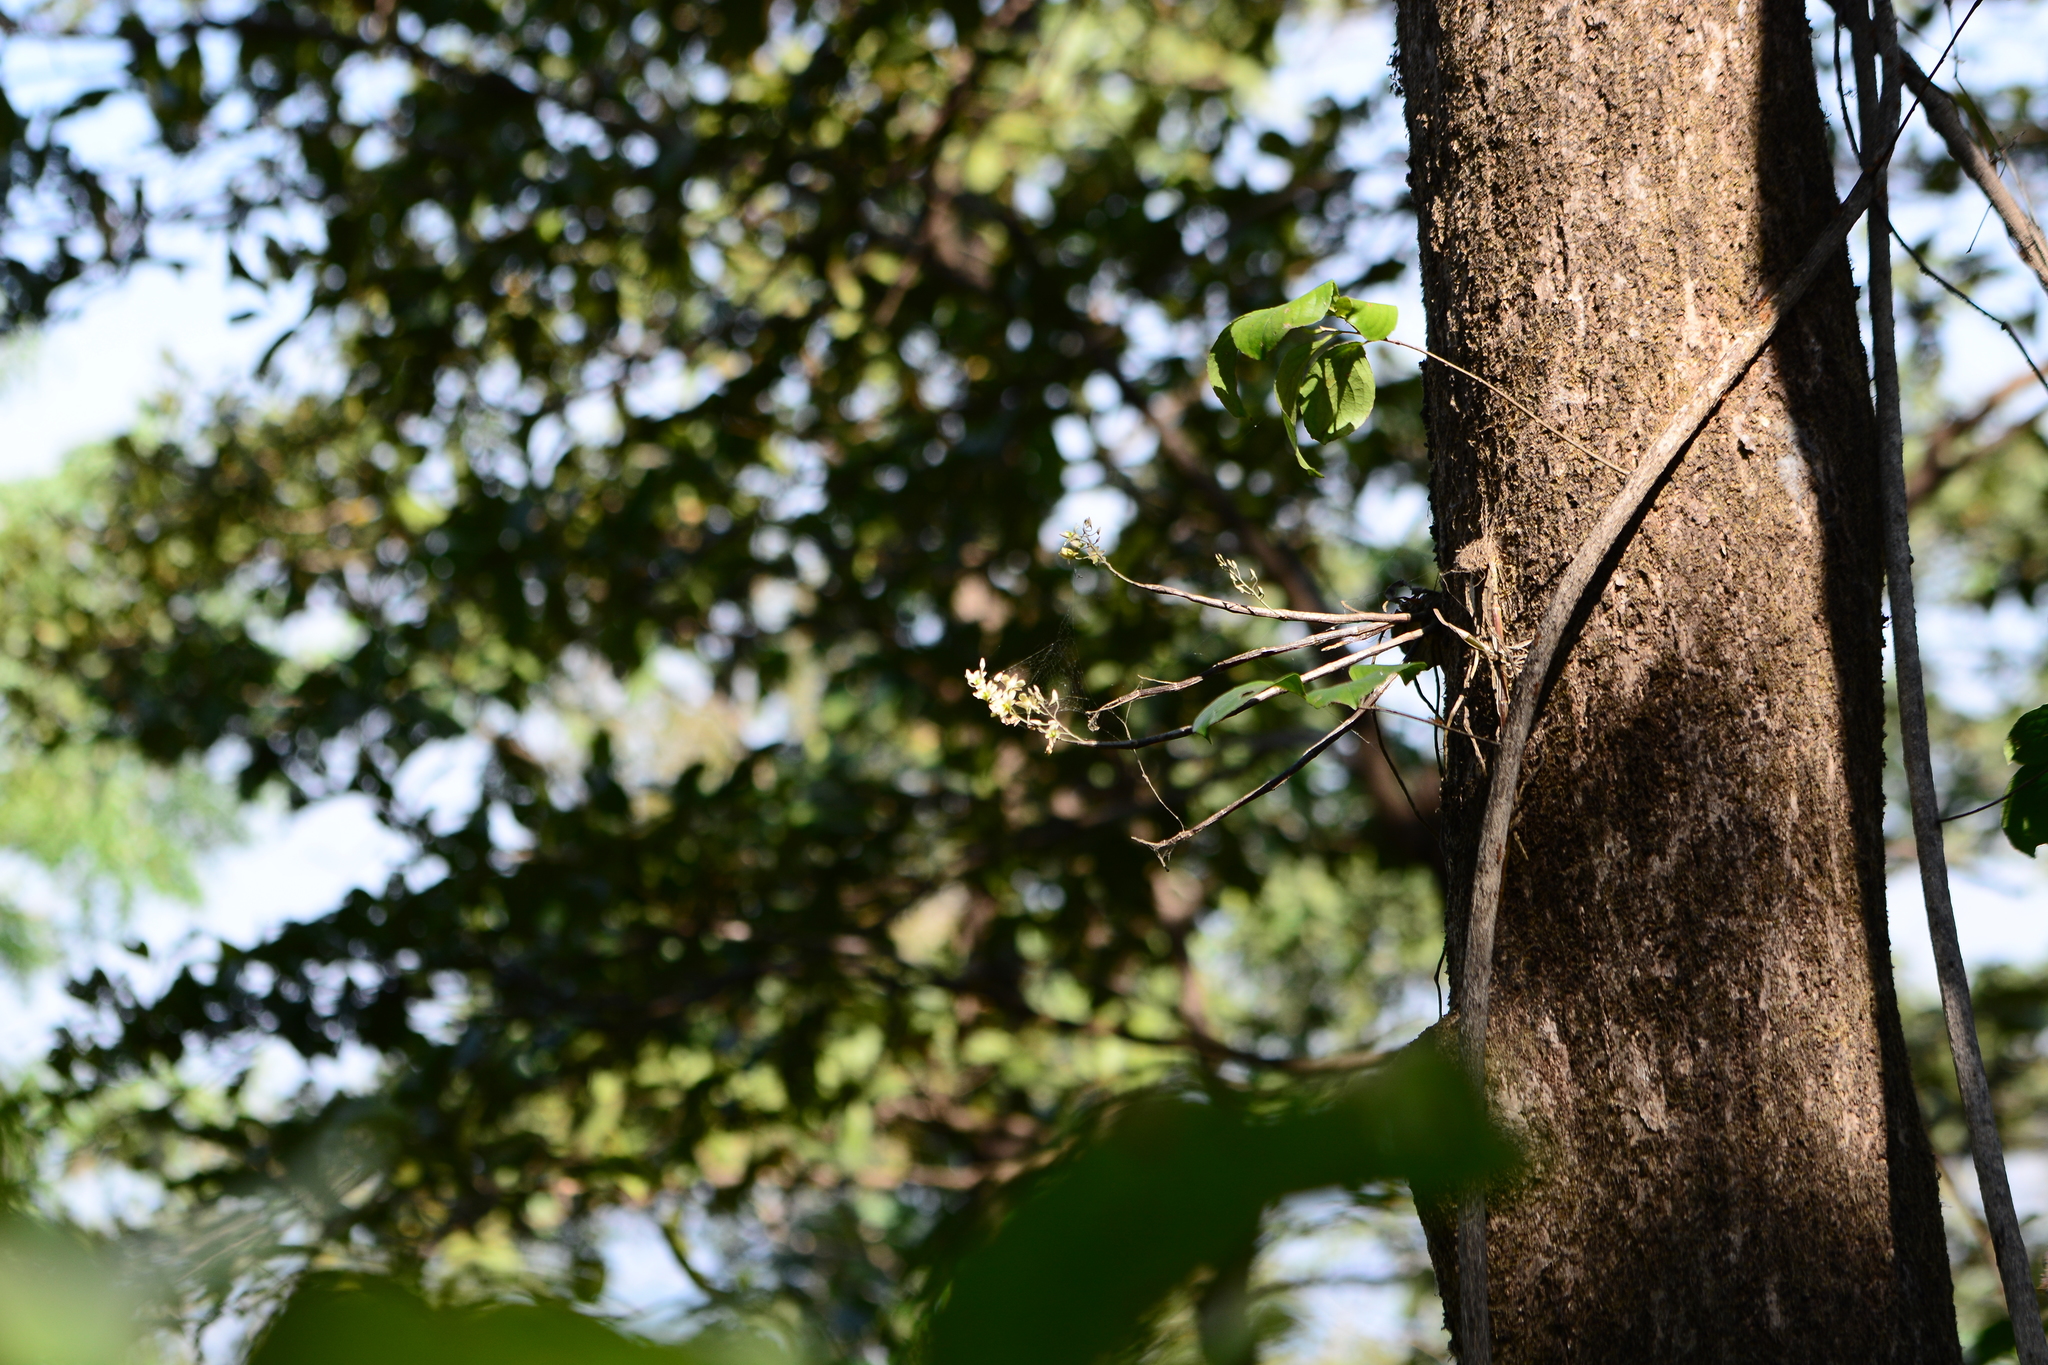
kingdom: Plantae
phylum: Tracheophyta
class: Liliopsida
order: Asparagales
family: Orchidaceae
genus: Dendrobium
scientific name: Dendrobium ovatum
